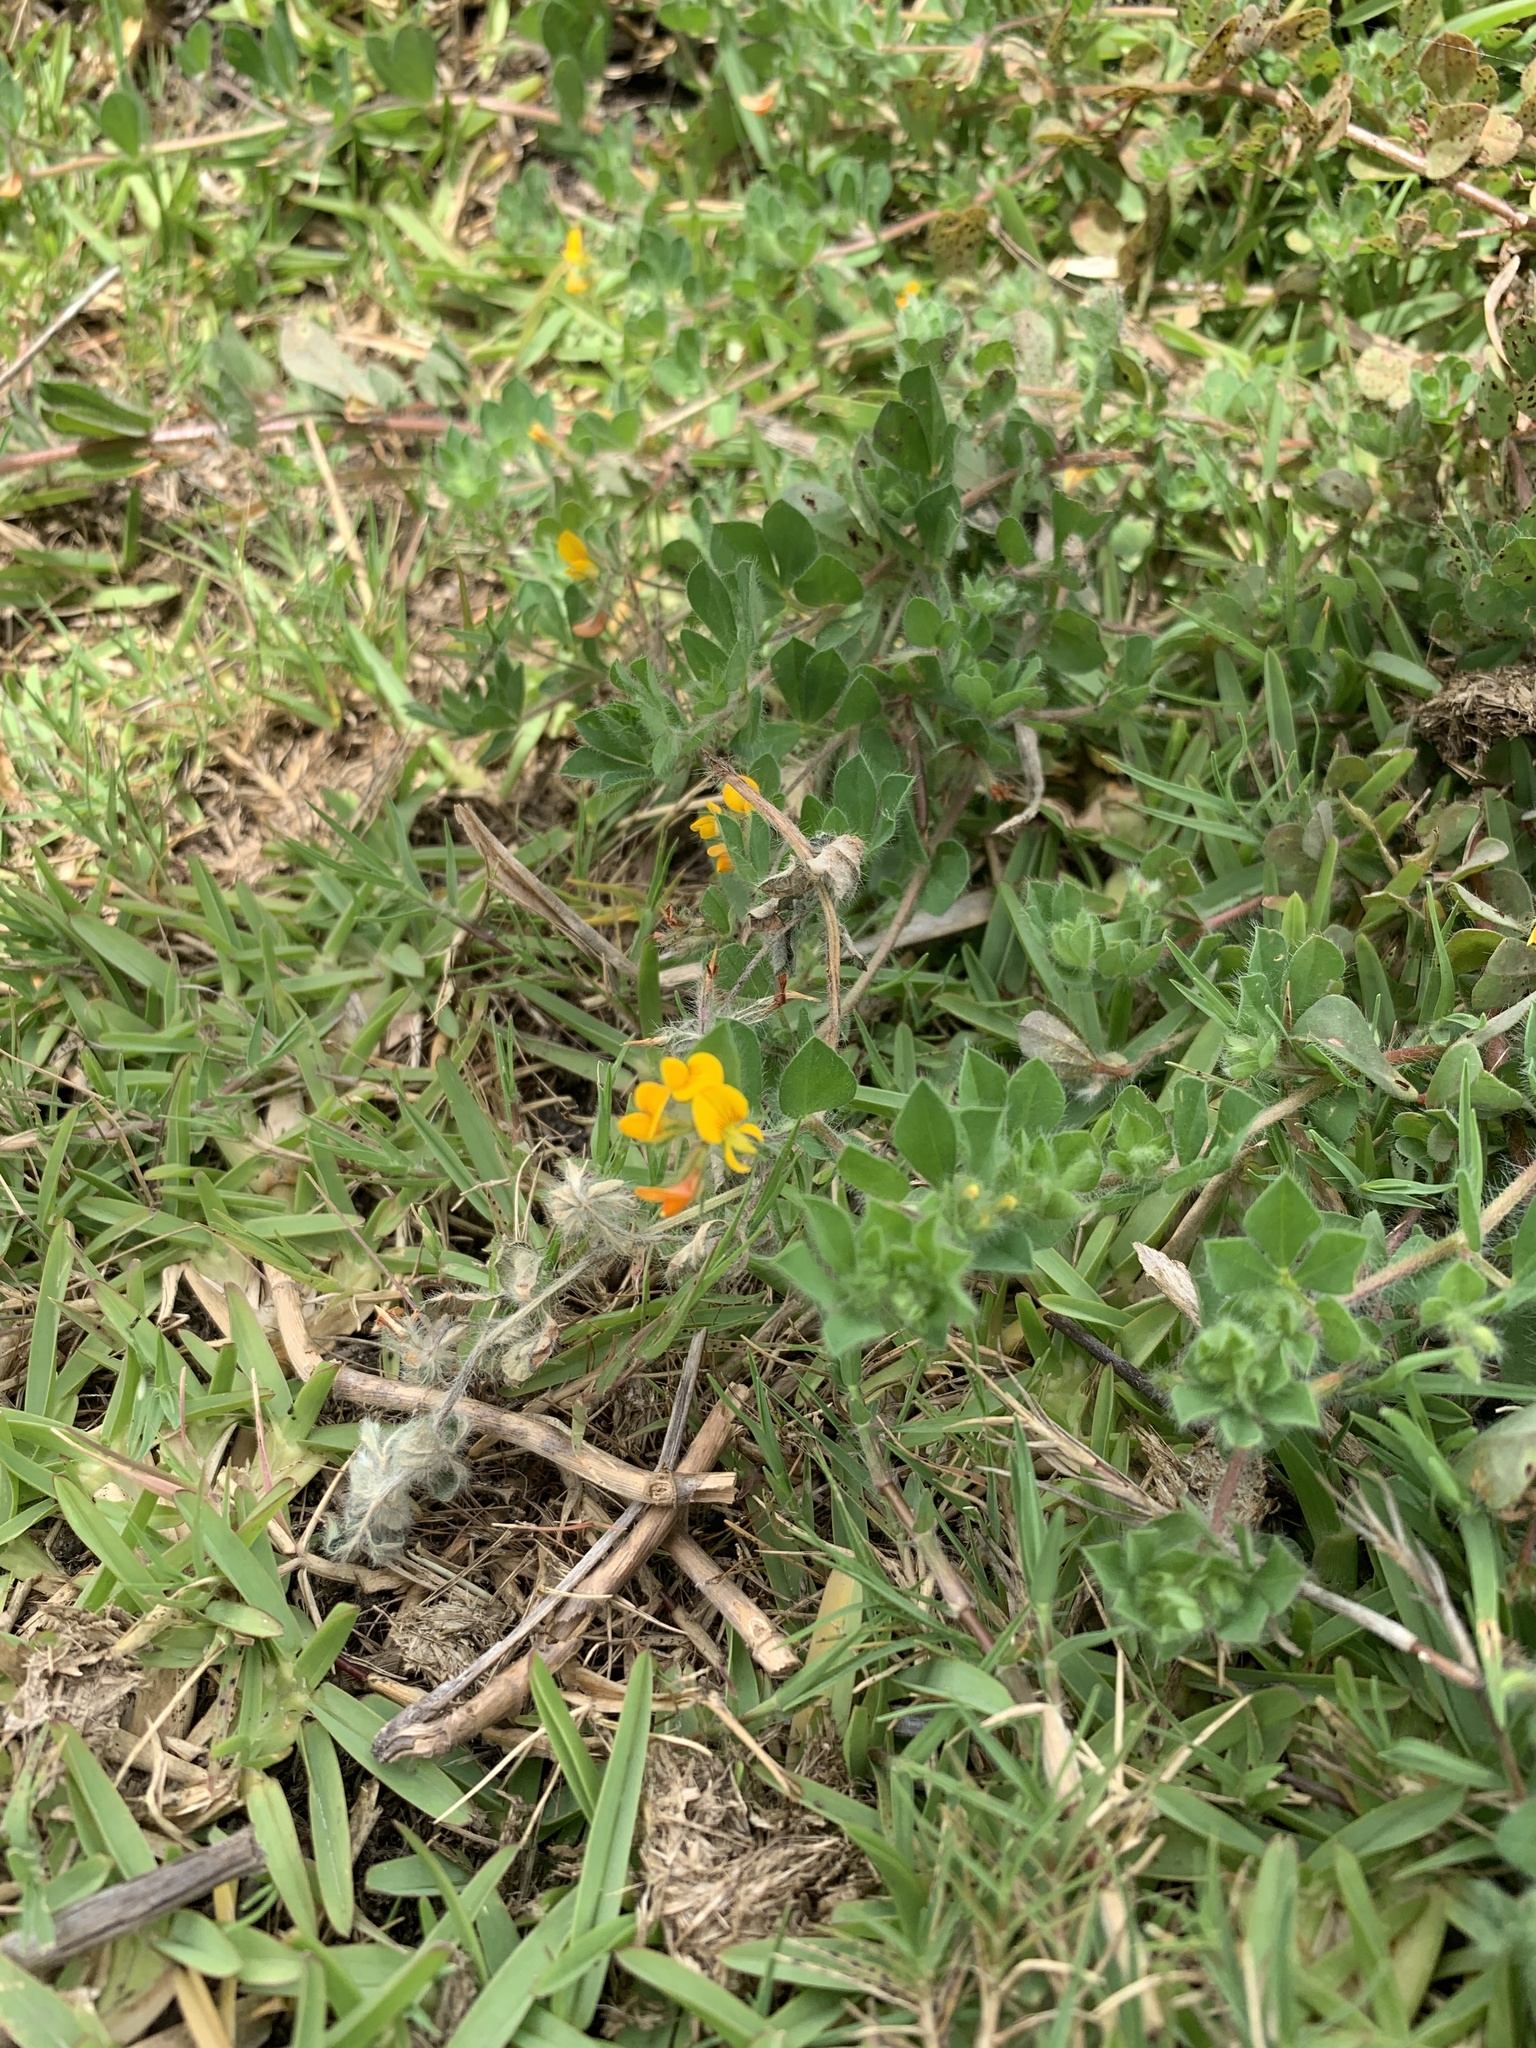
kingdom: Plantae
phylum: Tracheophyta
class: Magnoliopsida
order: Fabales
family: Fabaceae
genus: Lotus
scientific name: Lotus subbiflorus
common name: Hairy bird's-foot trefoil
